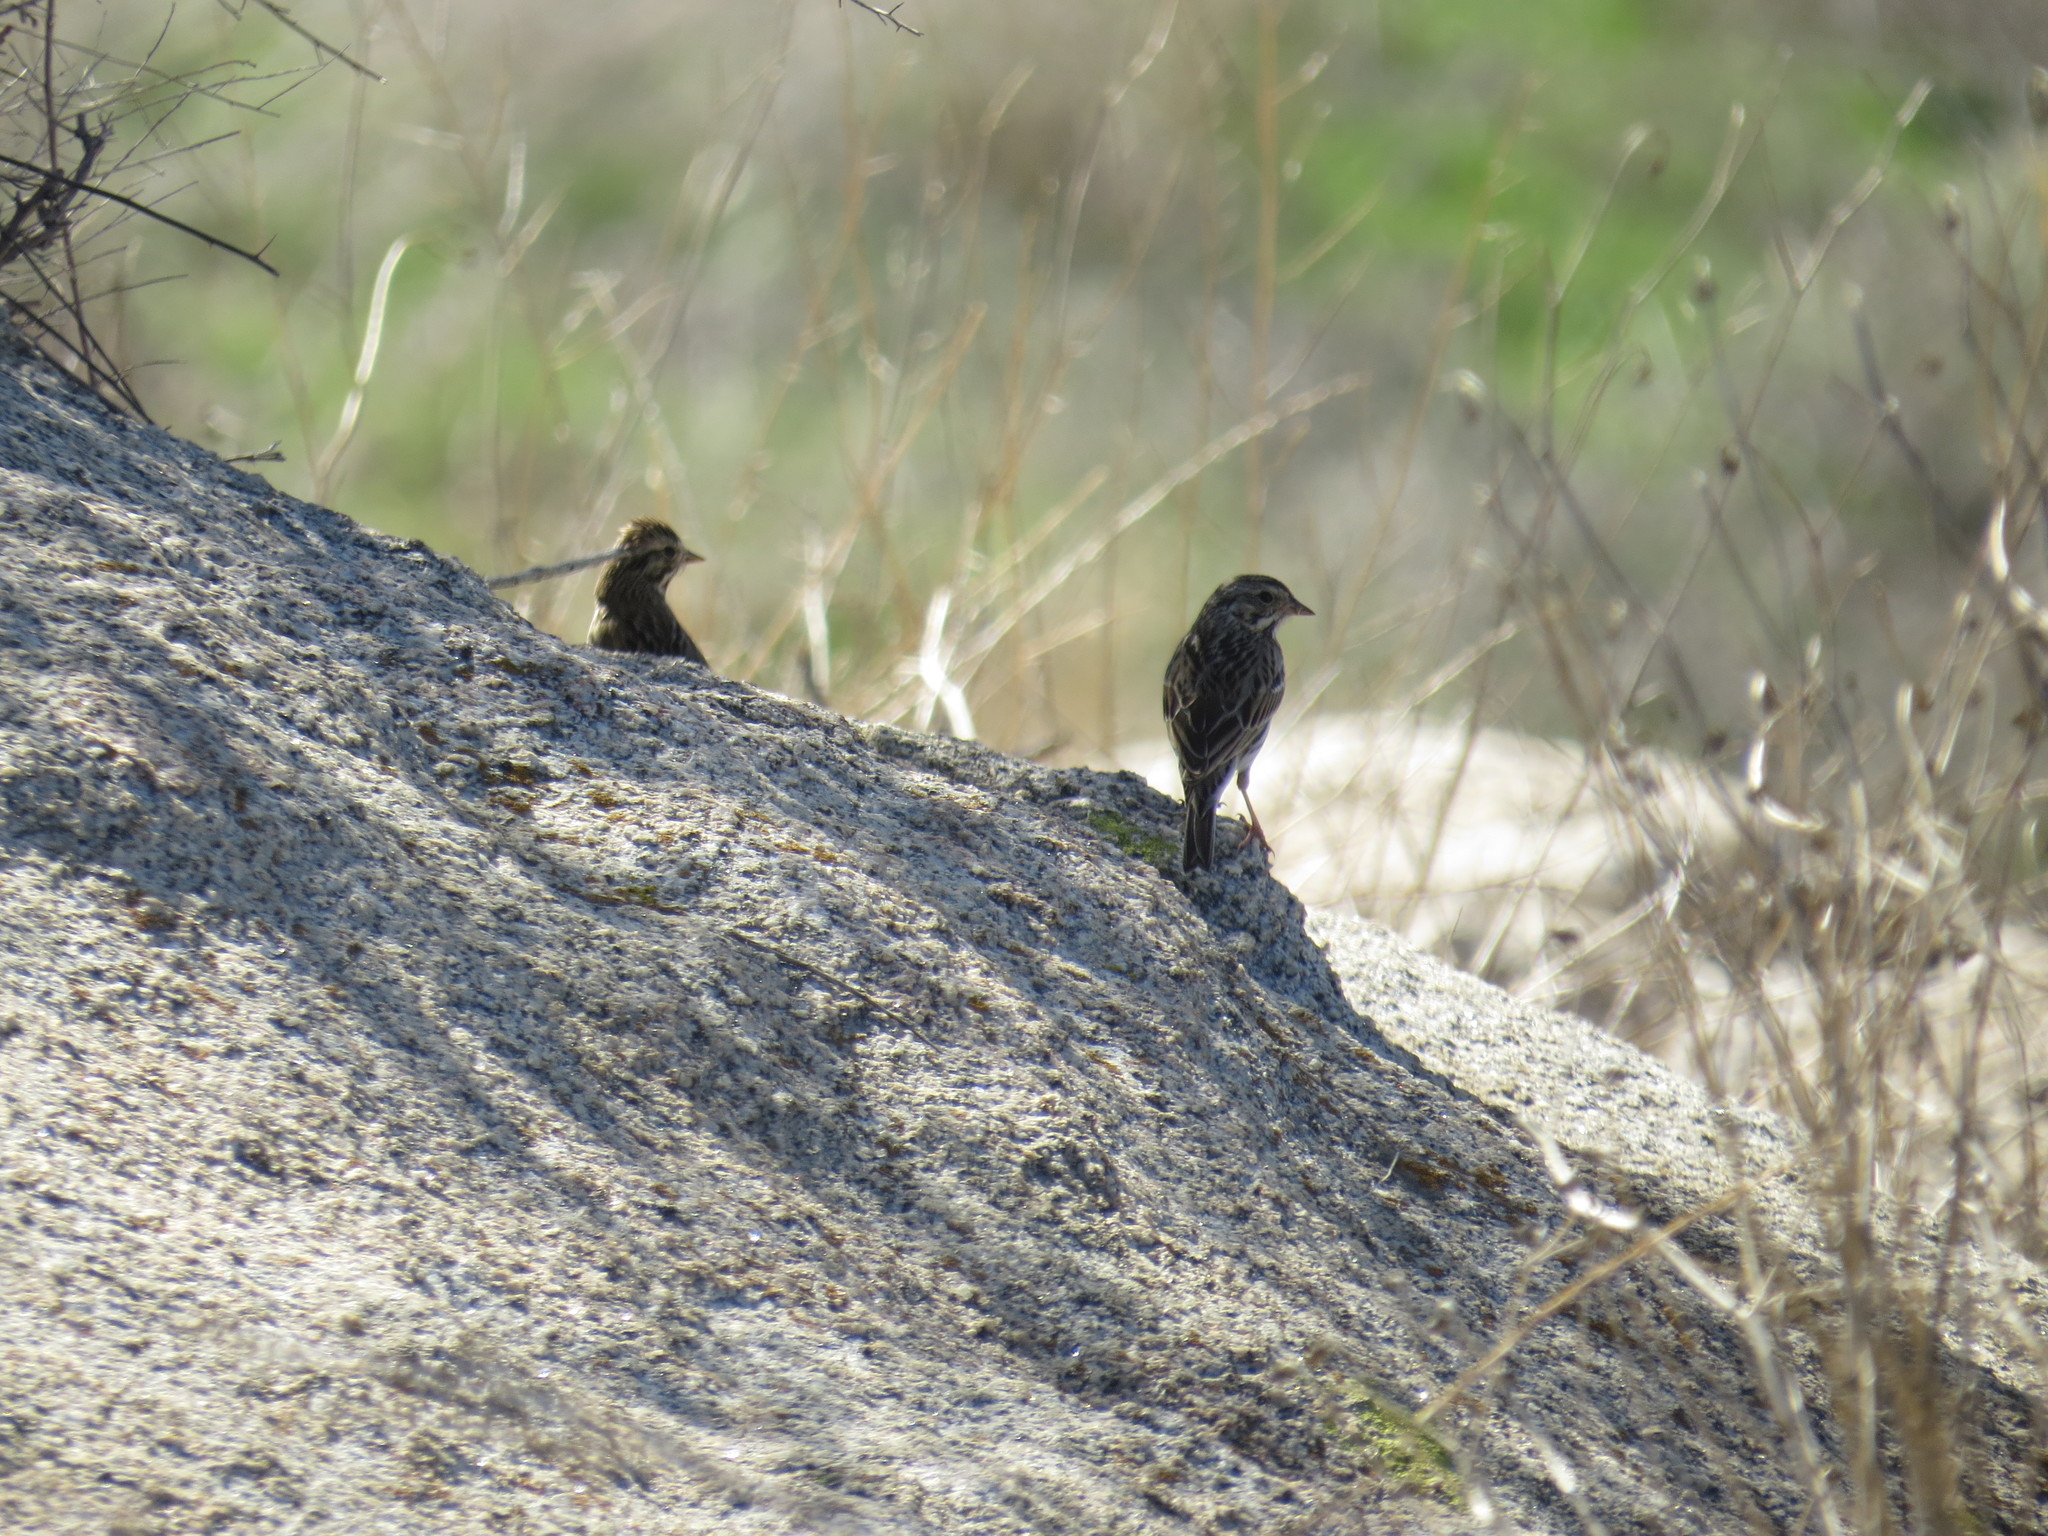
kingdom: Animalia
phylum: Chordata
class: Aves
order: Passeriformes
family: Passerellidae
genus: Passerculus
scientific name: Passerculus sandwichensis
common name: Savannah sparrow
